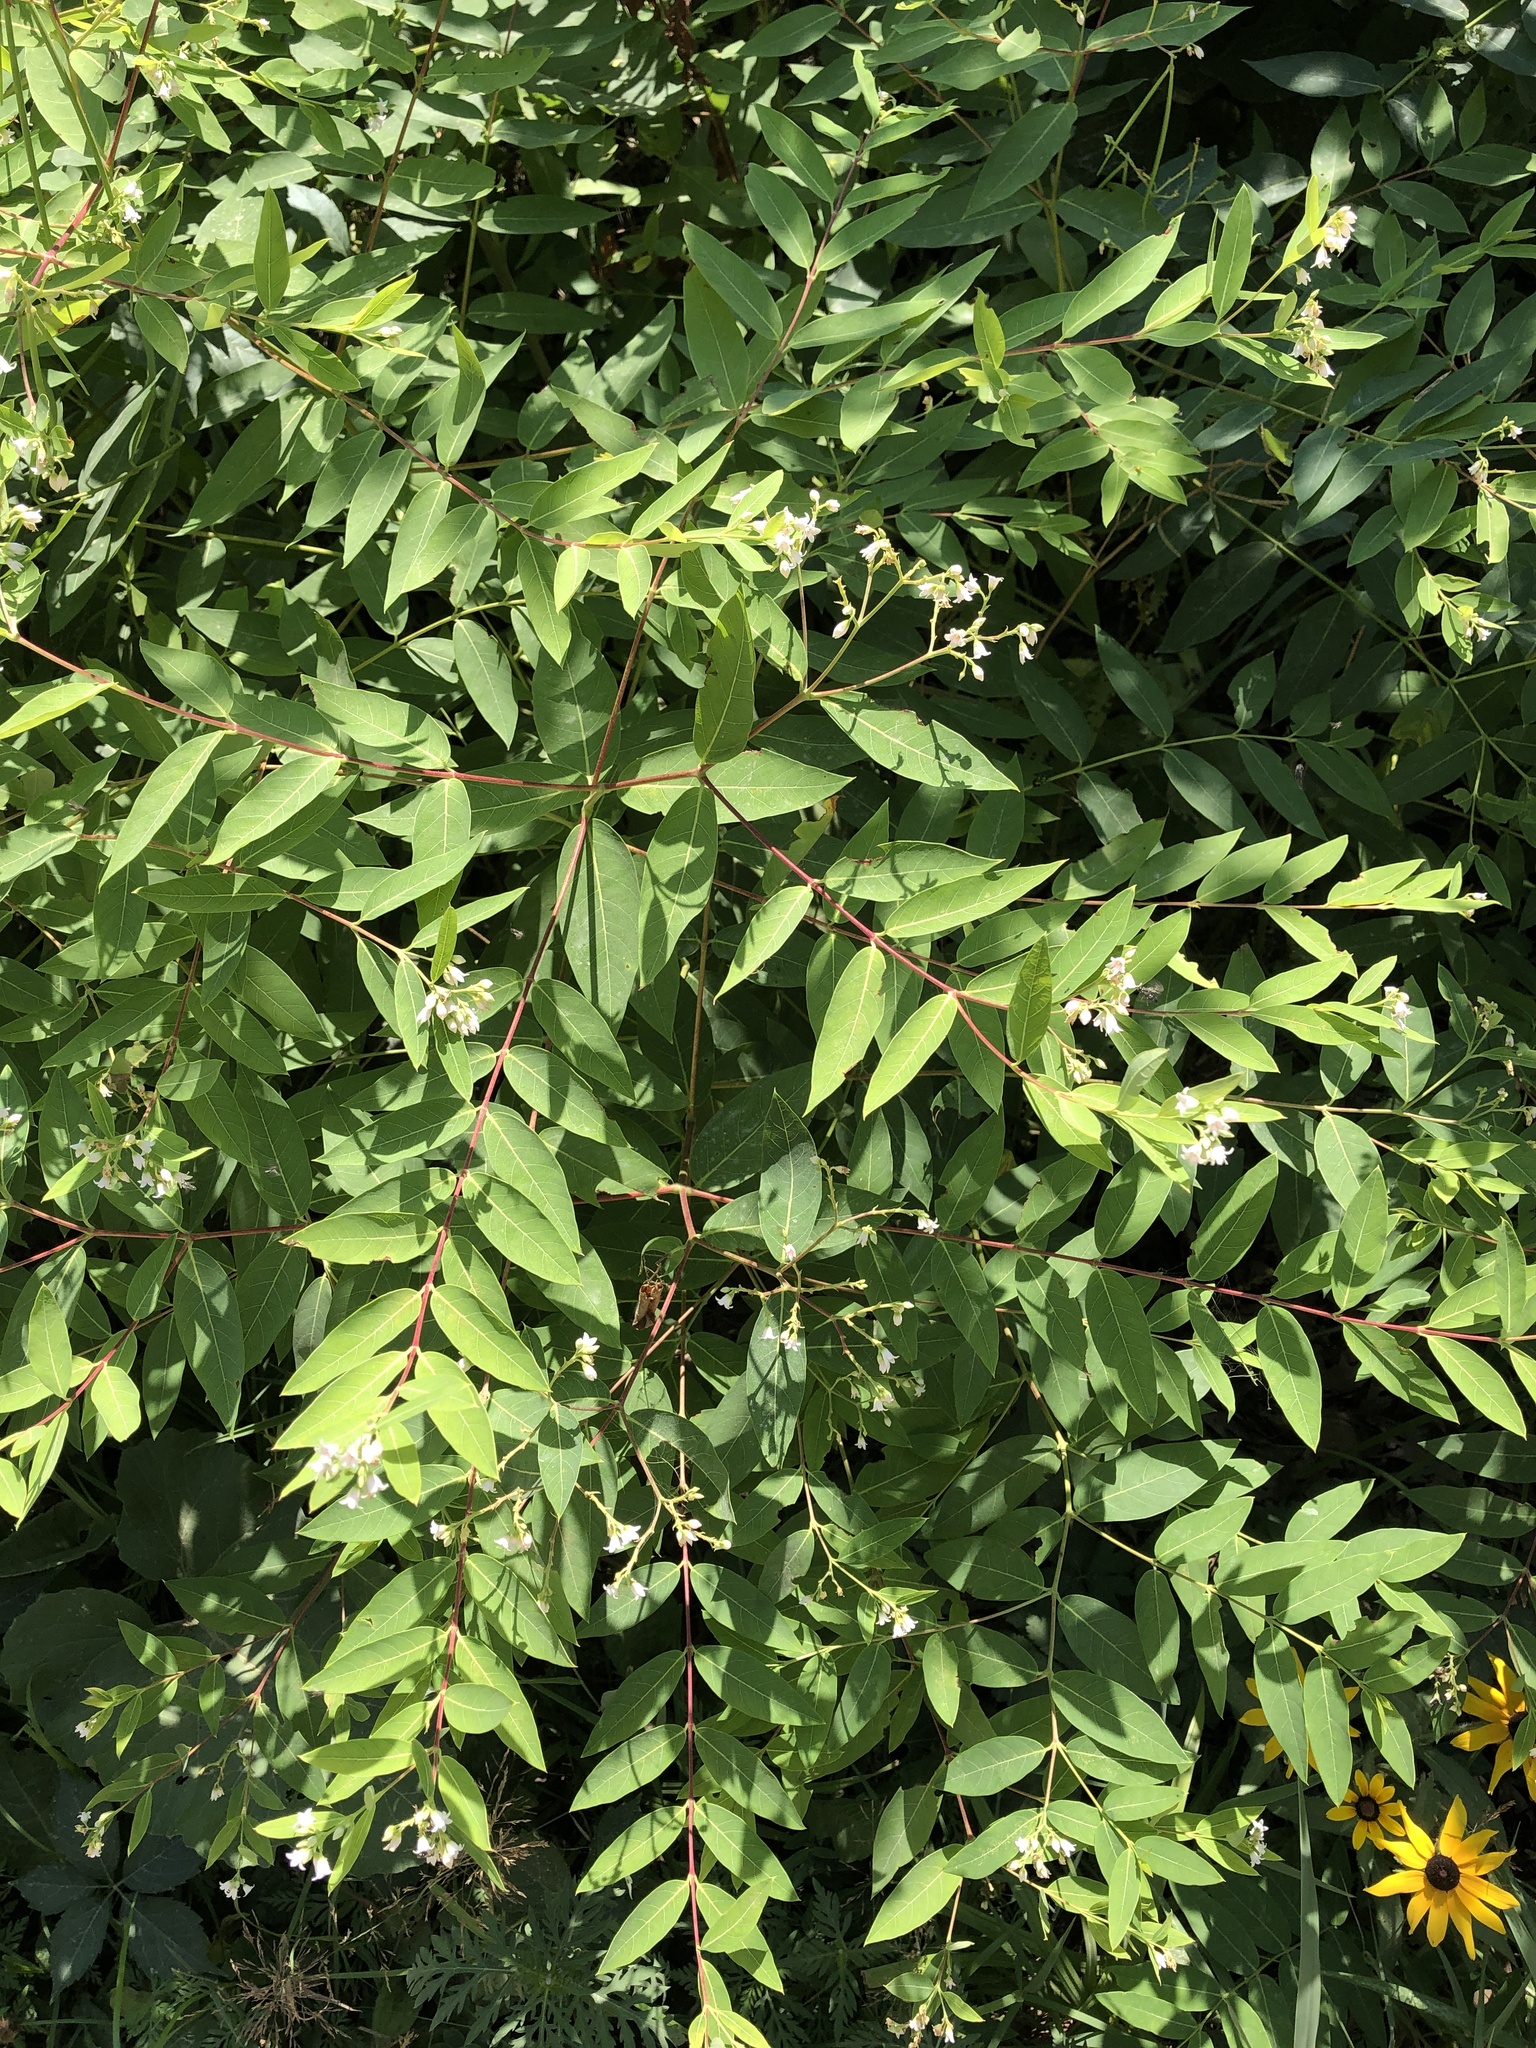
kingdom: Plantae
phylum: Tracheophyta
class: Magnoliopsida
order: Gentianales
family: Apocynaceae
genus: Apocynum
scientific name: Apocynum androsaemifolium
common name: Spreading dogbane
